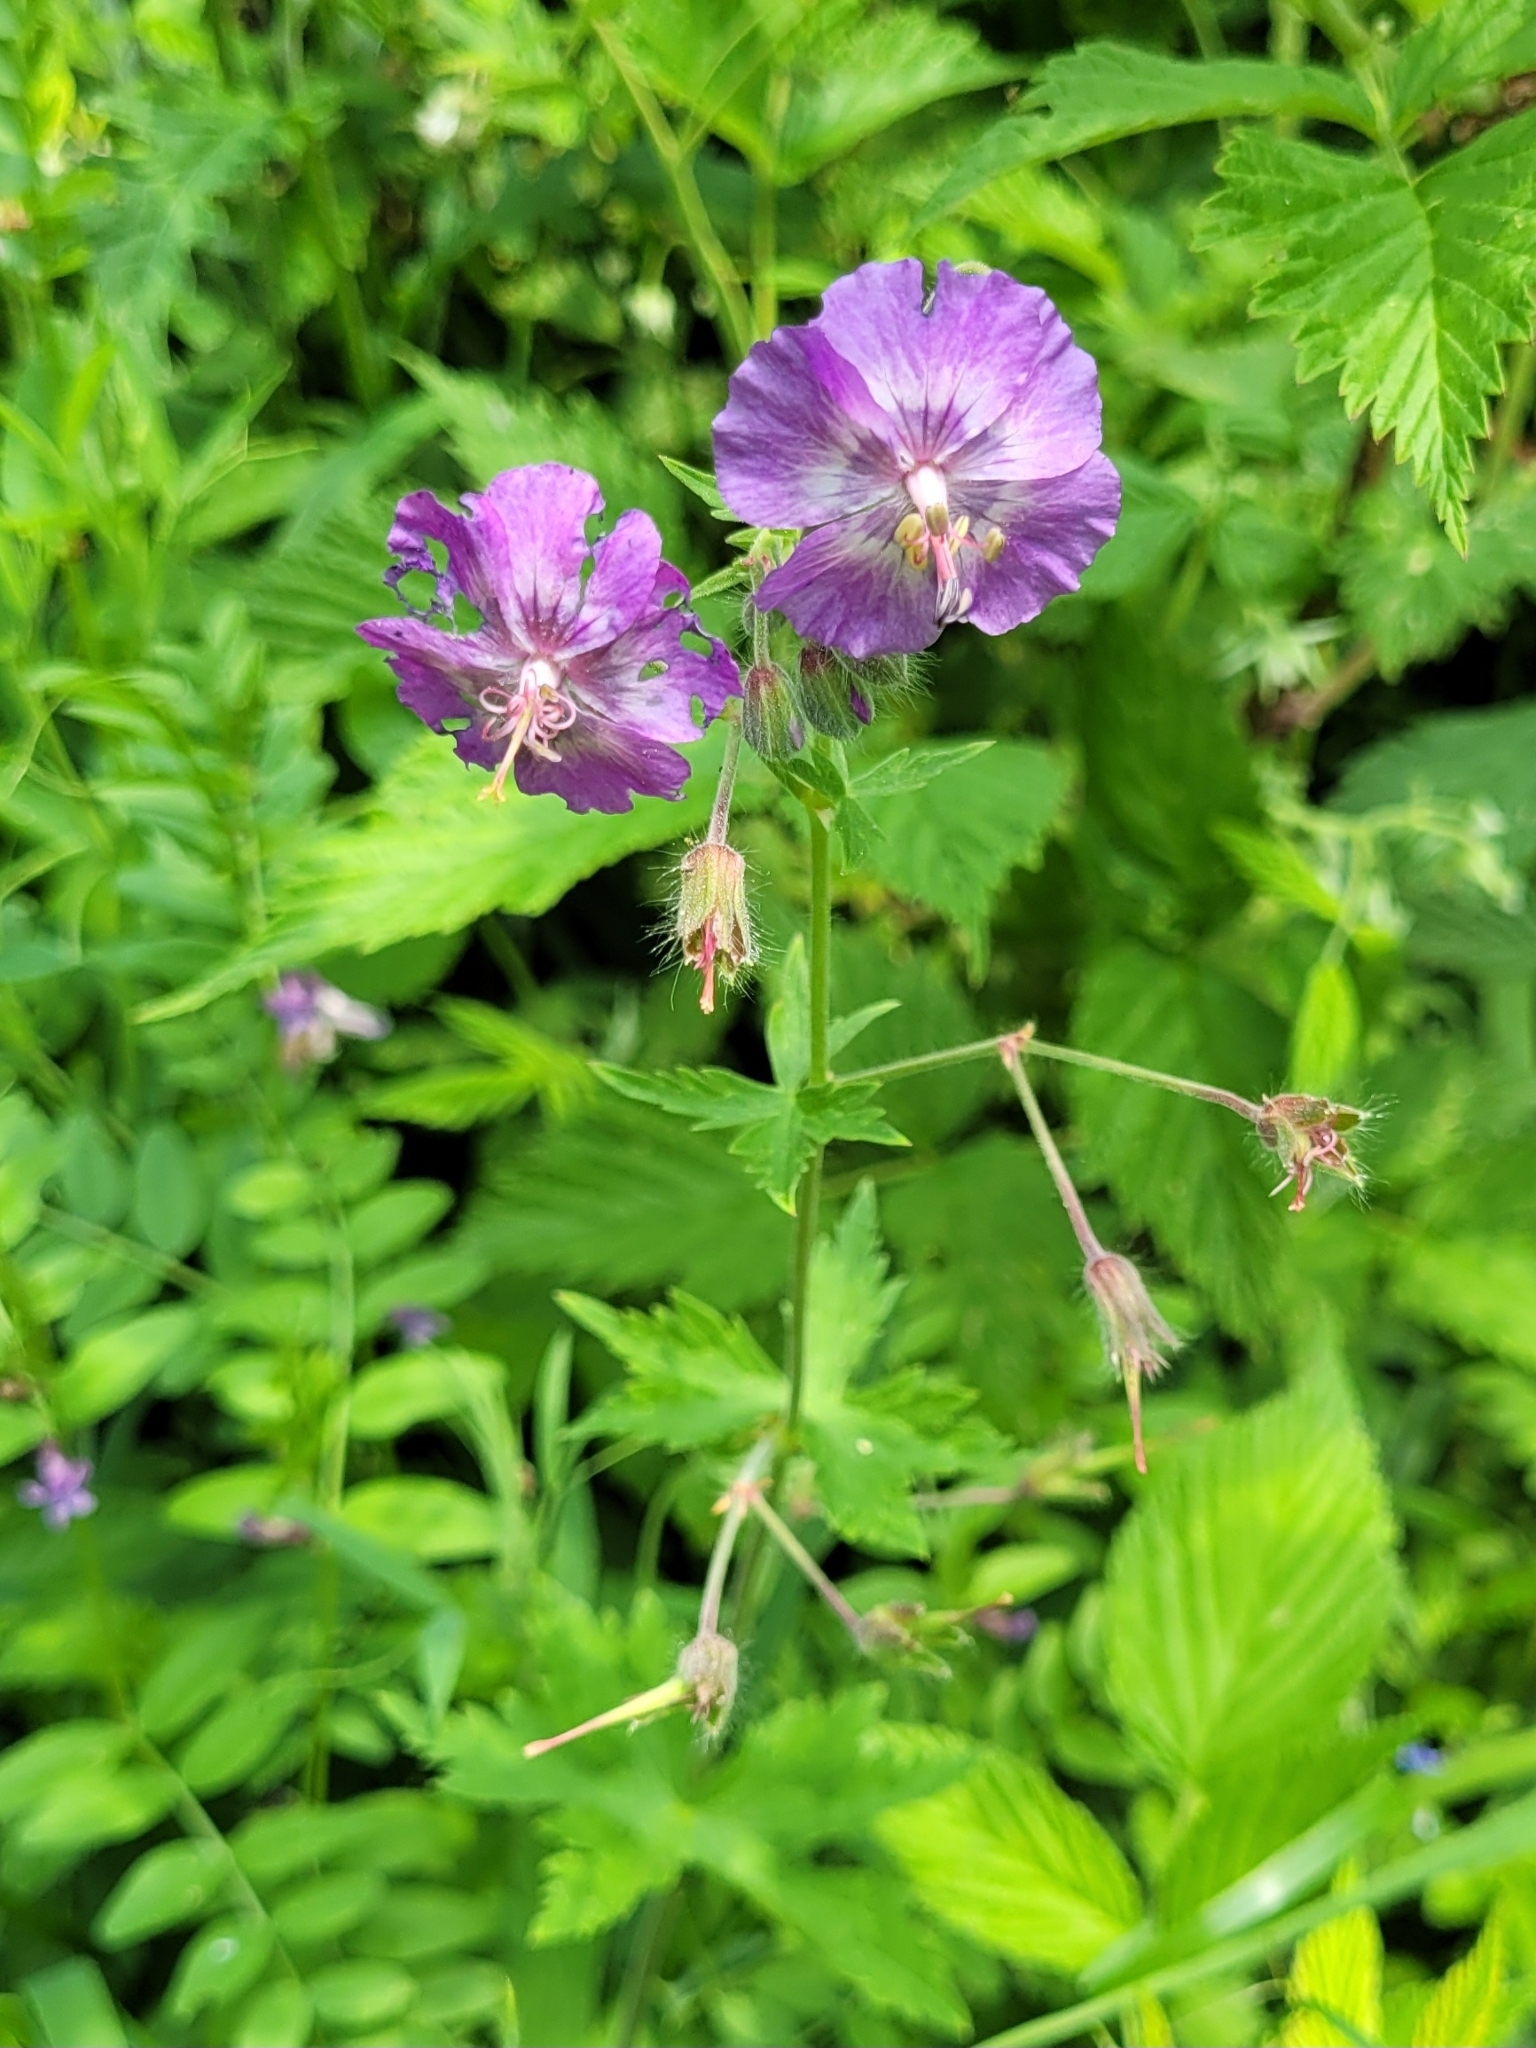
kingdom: Plantae
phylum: Tracheophyta
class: Magnoliopsida
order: Geraniales
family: Geraniaceae
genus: Geranium
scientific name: Geranium phaeum
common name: Dusky crane's-bill
